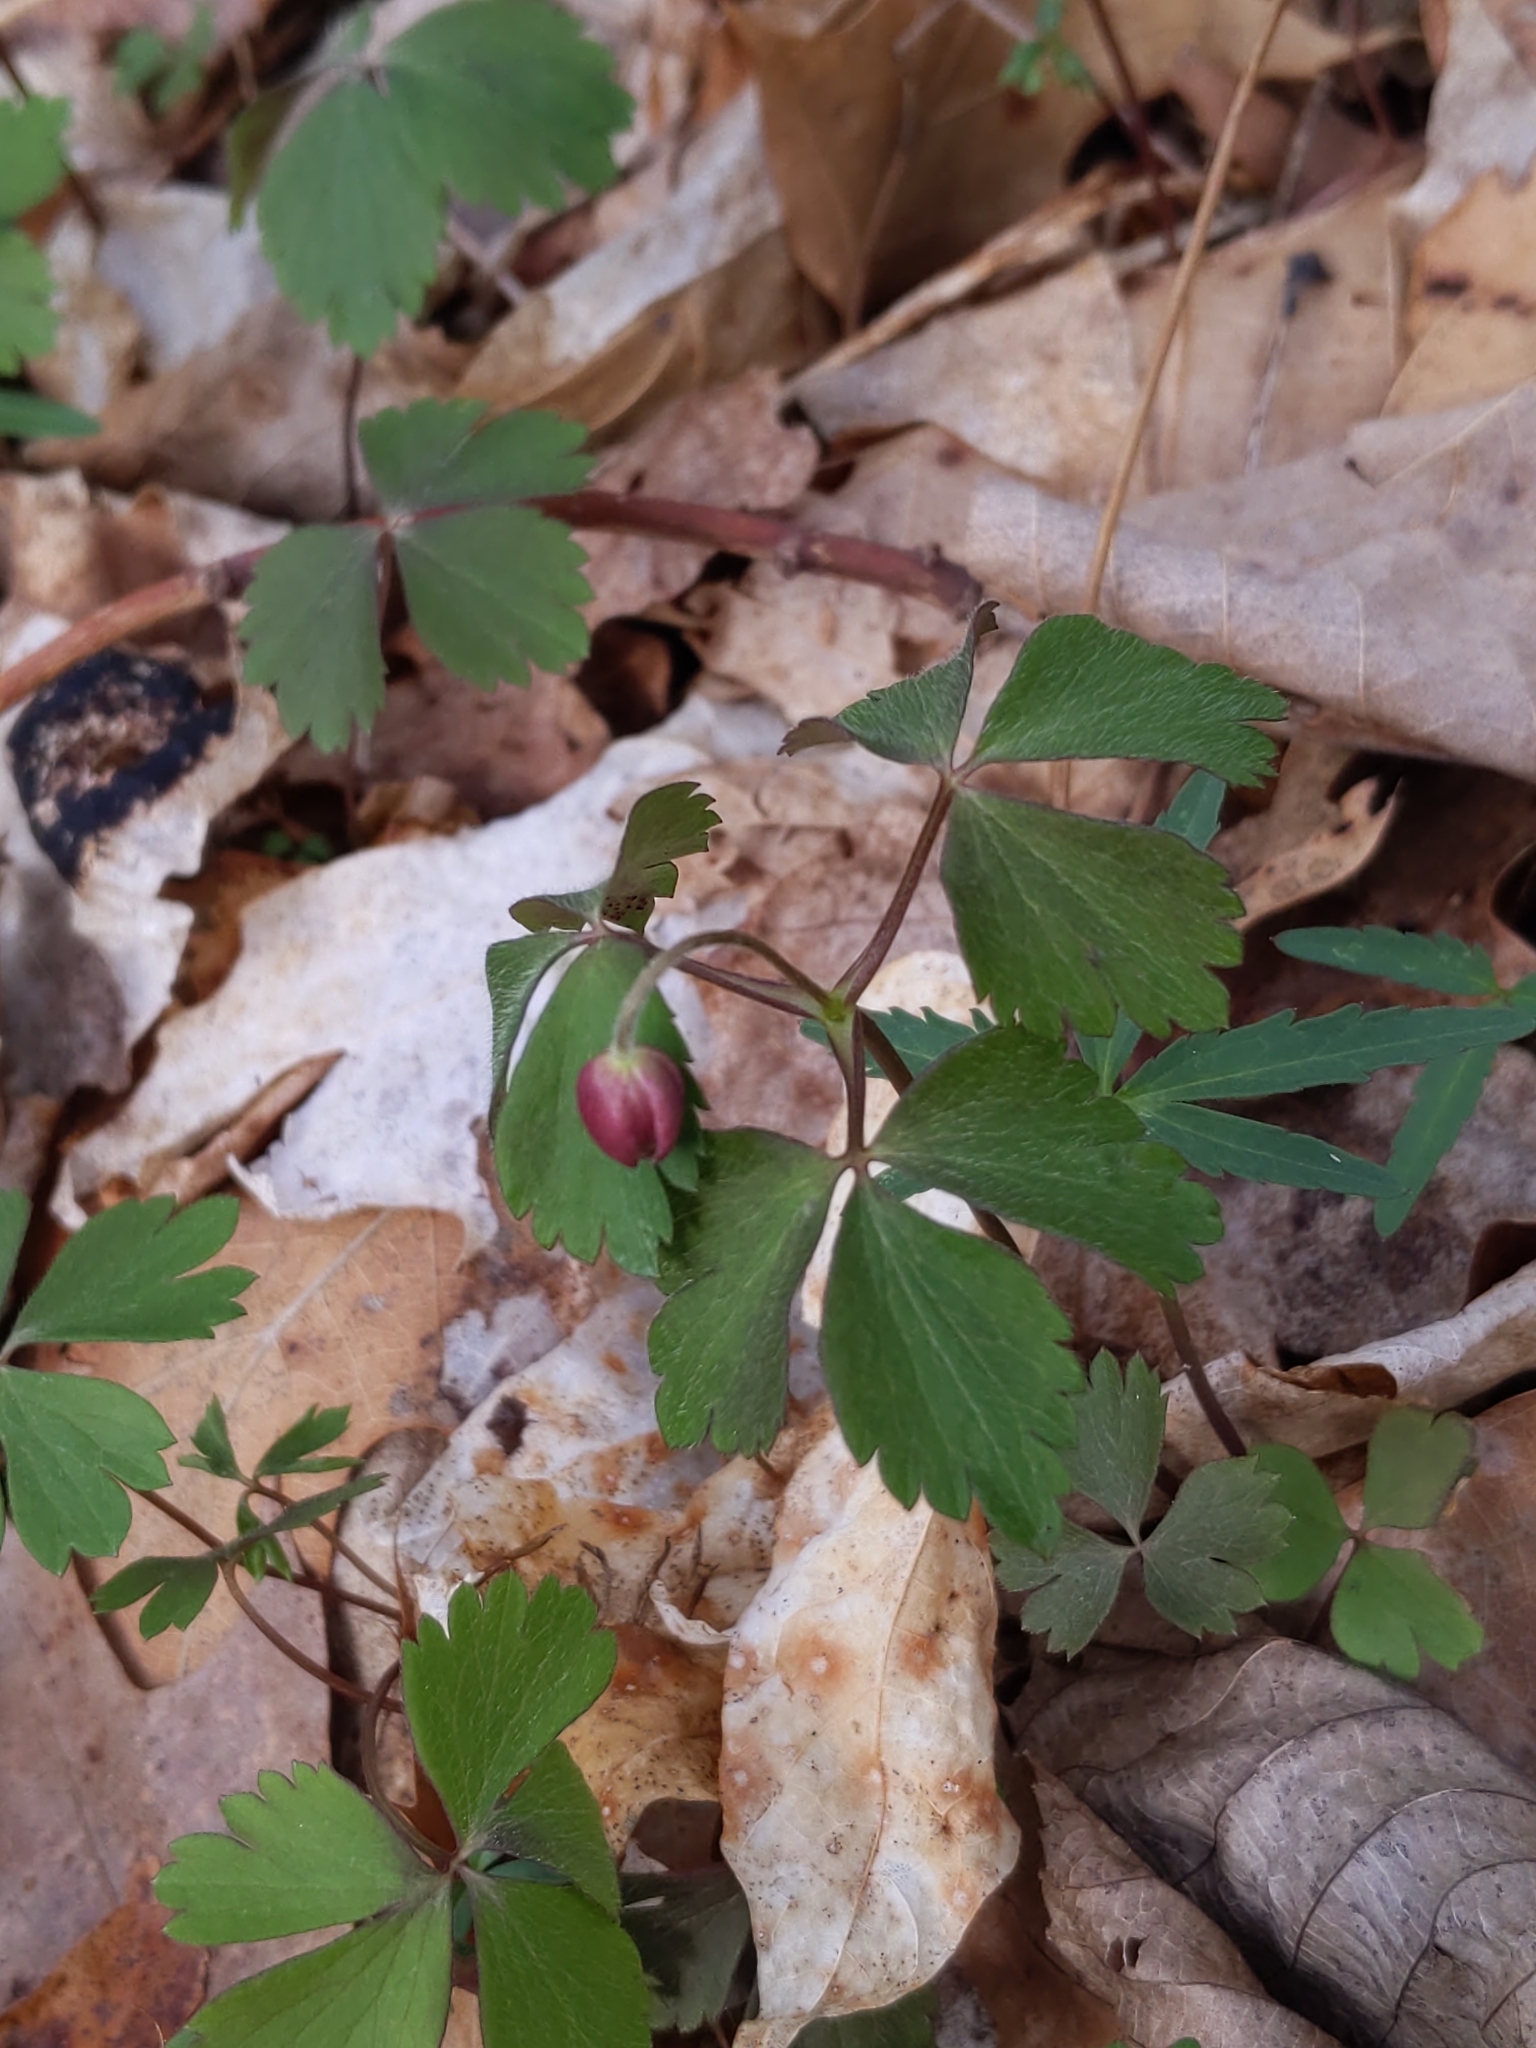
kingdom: Plantae
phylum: Tracheophyta
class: Magnoliopsida
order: Ranunculales
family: Ranunculaceae
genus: Anemone
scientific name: Anemone quinquefolia
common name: Wood anemone
